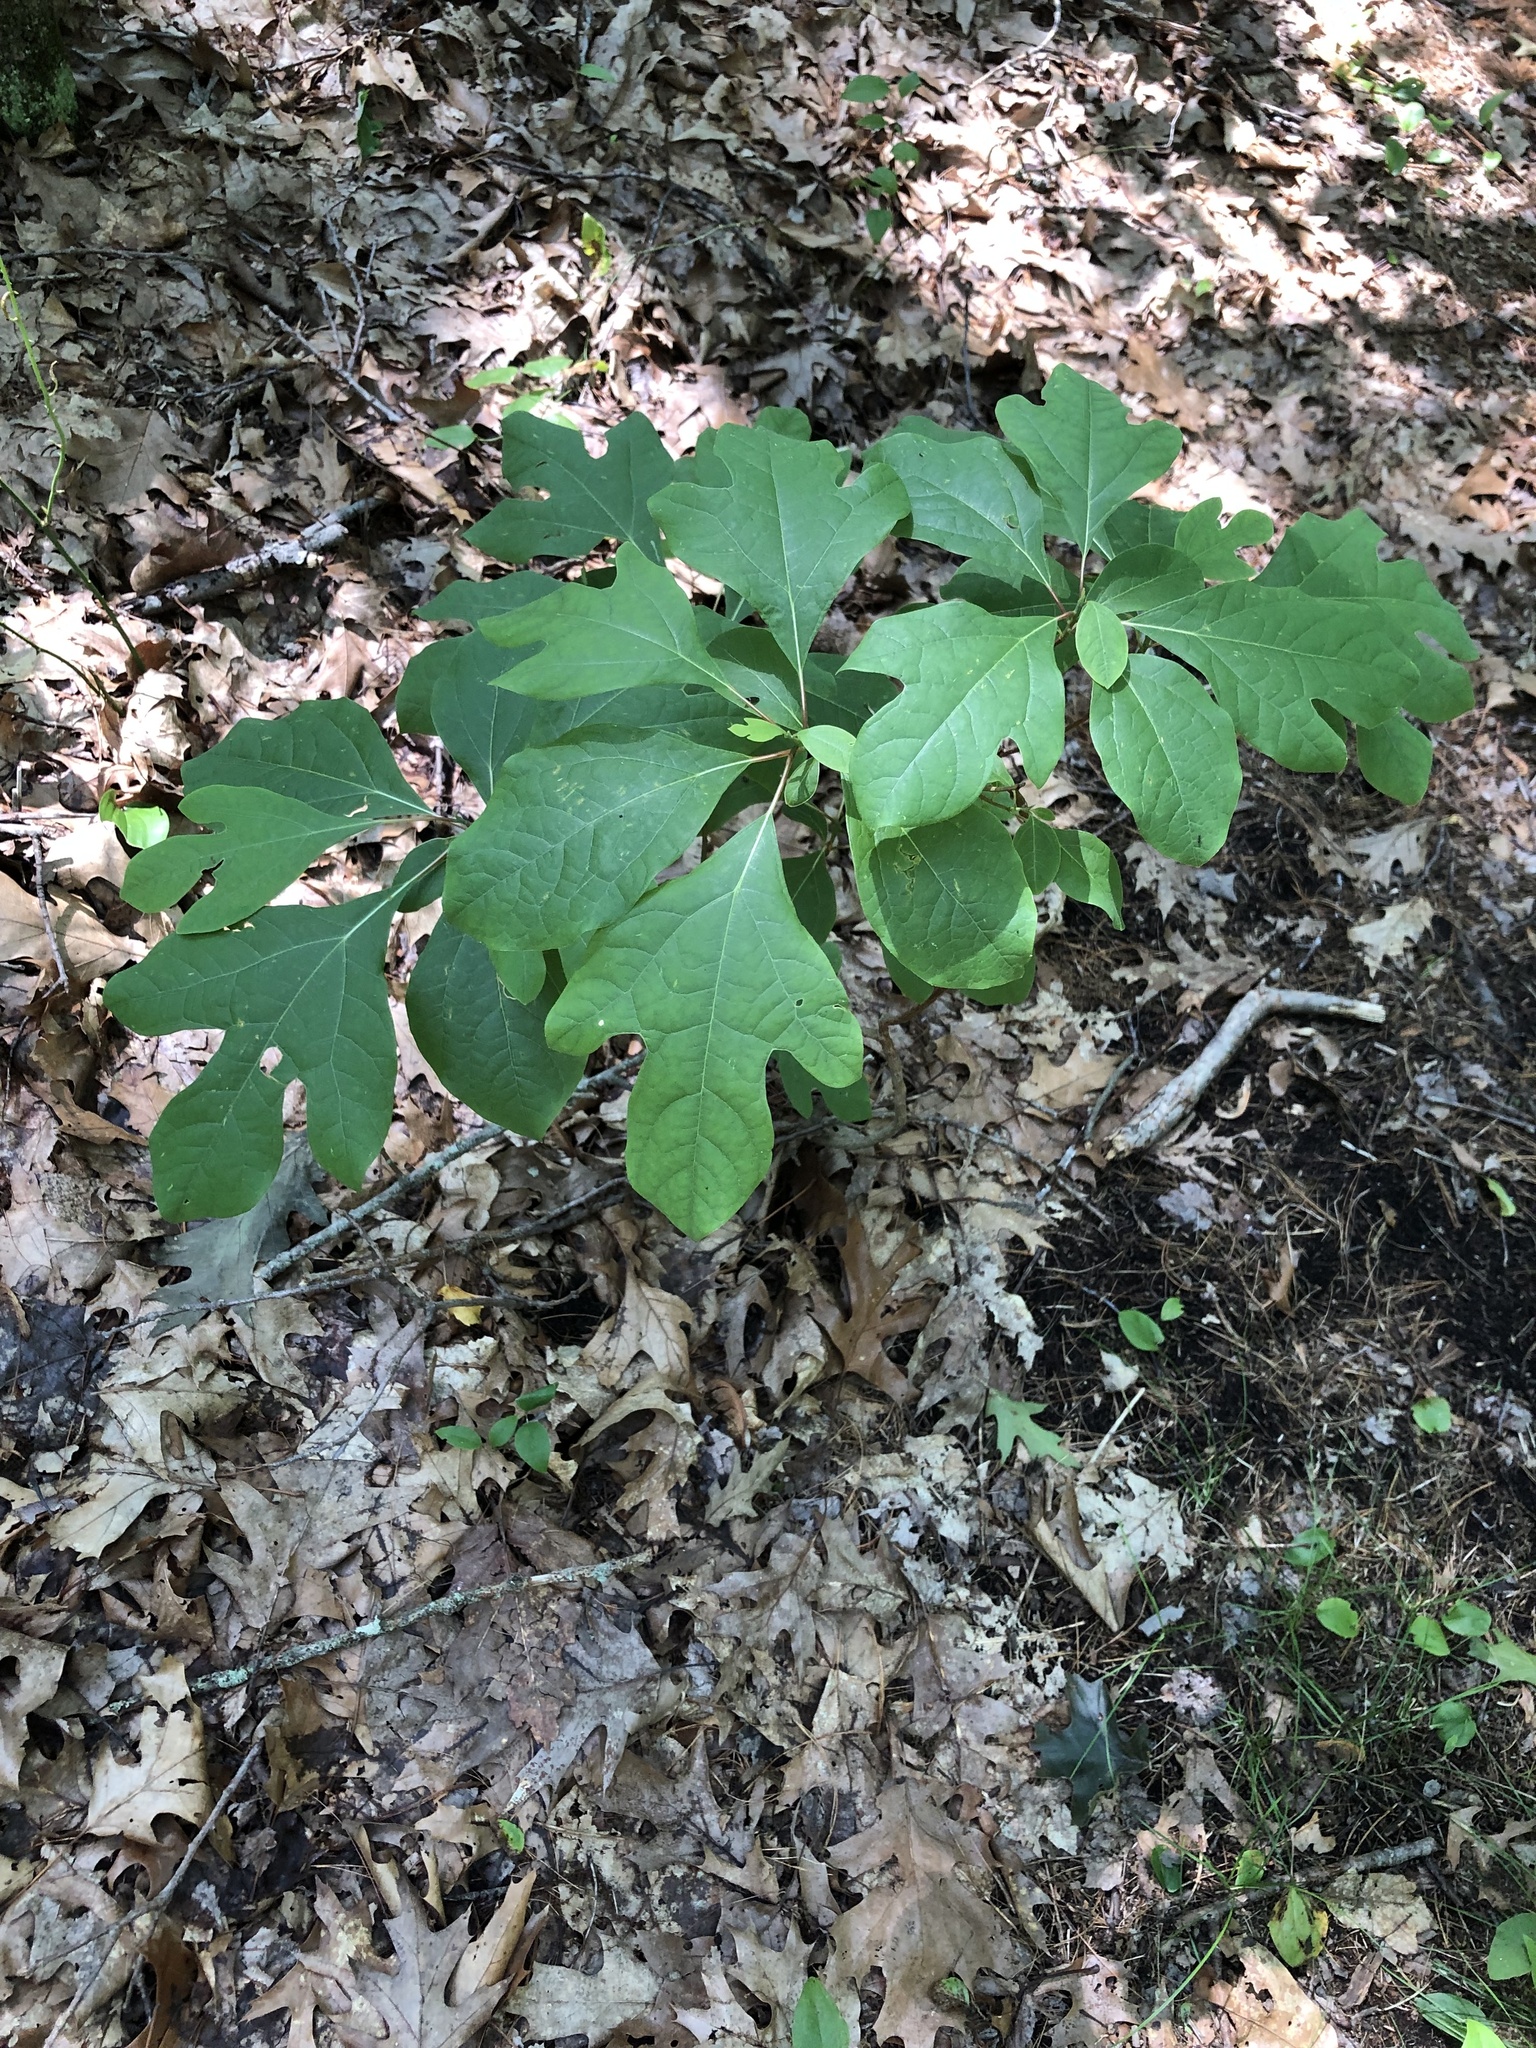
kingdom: Plantae
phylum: Tracheophyta
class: Magnoliopsida
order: Laurales
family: Lauraceae
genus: Sassafras
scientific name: Sassafras albidum
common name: Sassafras
